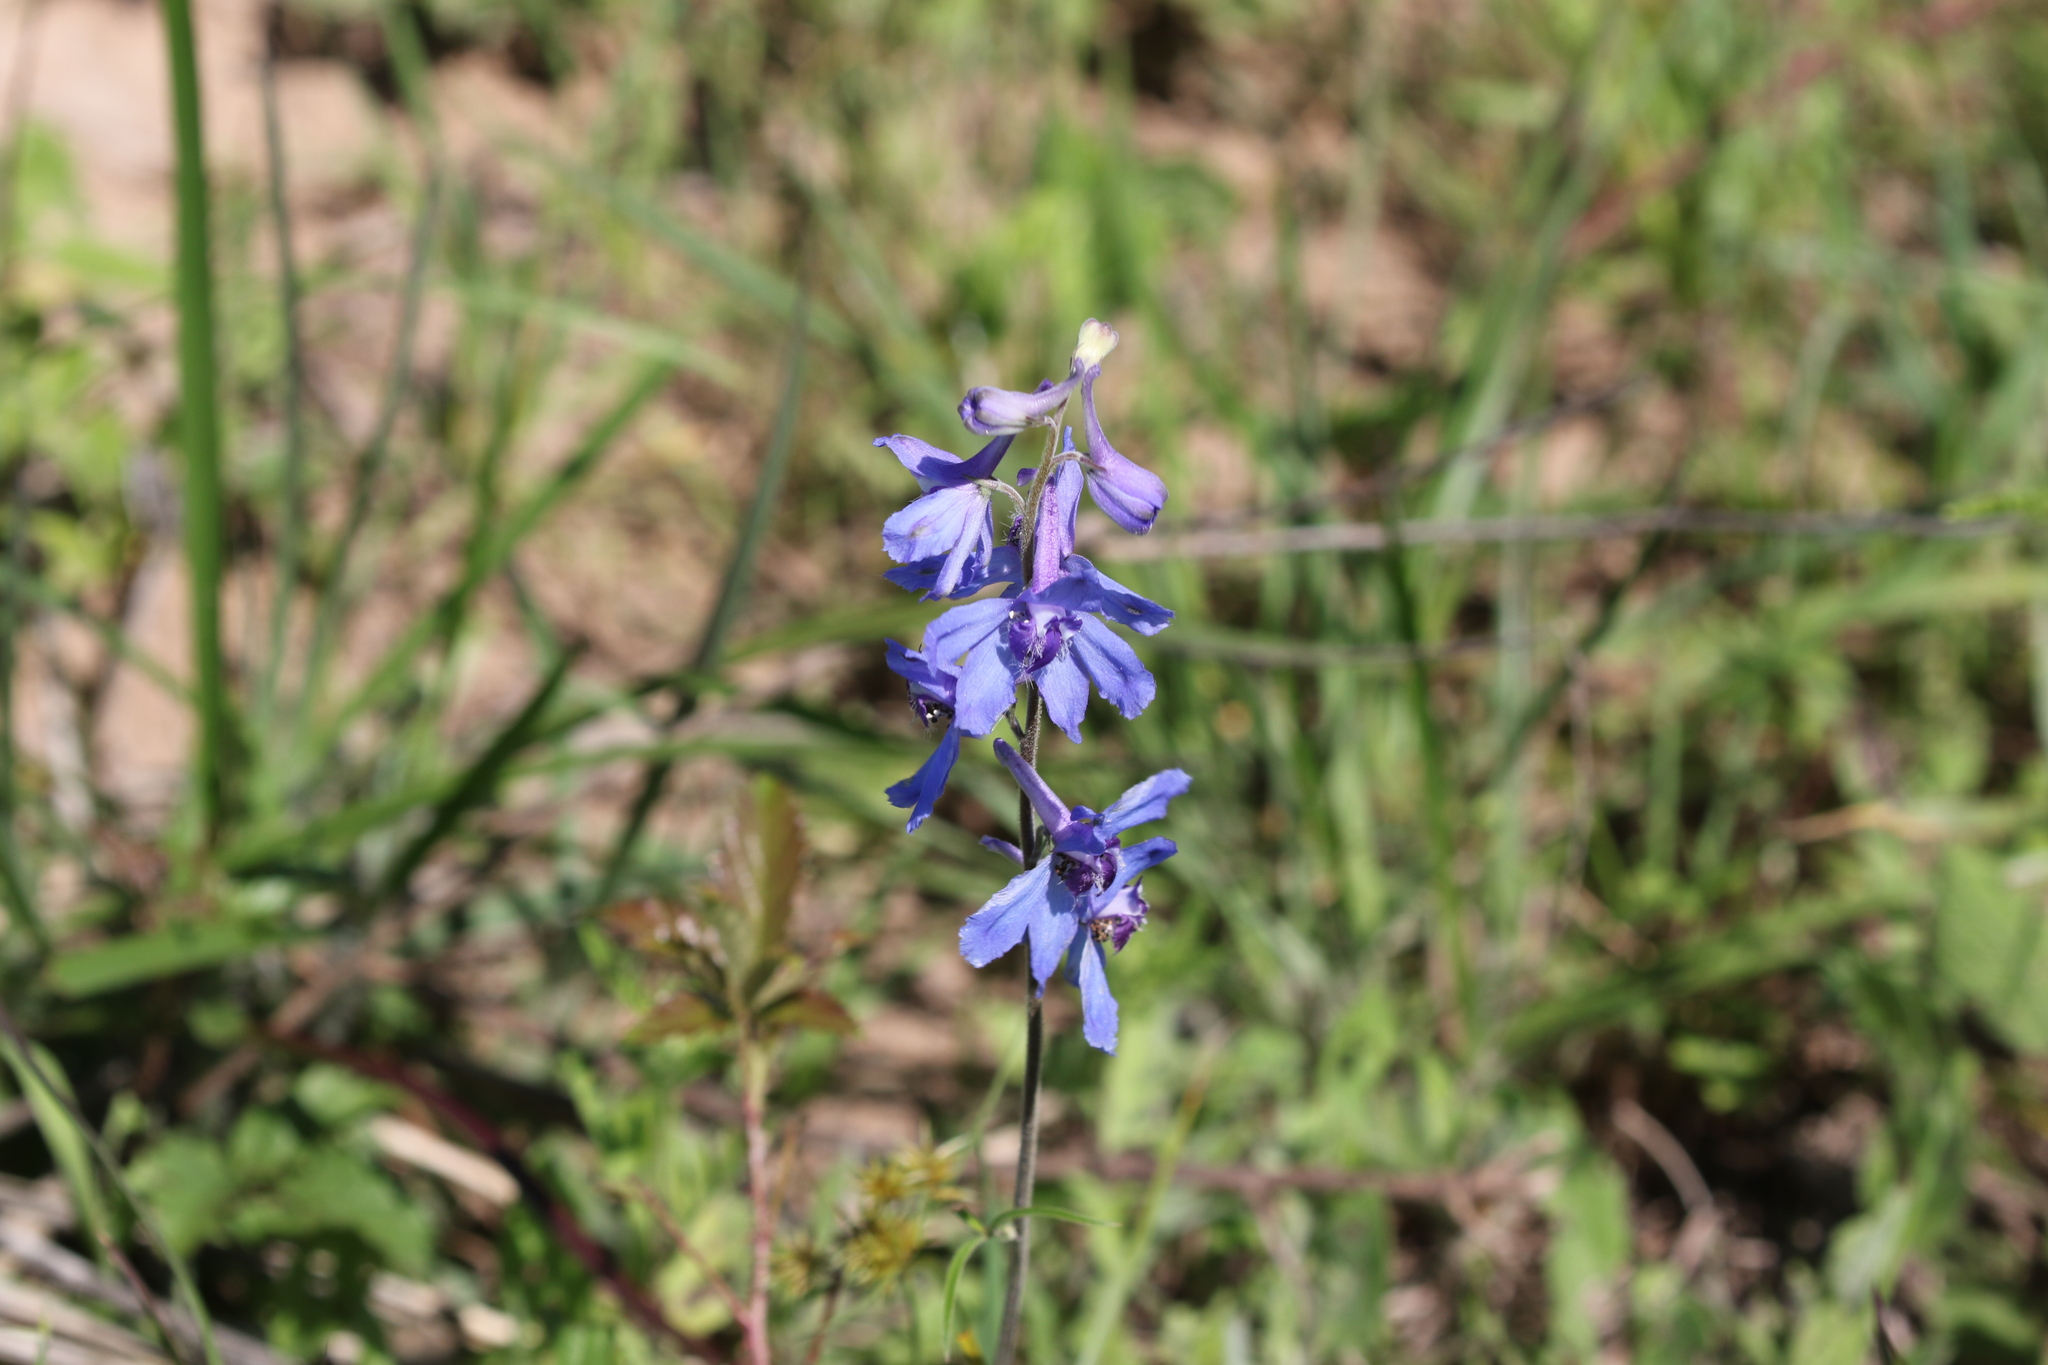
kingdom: Plantae
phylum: Tracheophyta
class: Magnoliopsida
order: Ranunculales
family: Ranunculaceae
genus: Delphinium
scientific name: Delphinium carolinianum
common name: Carolina larkspur
